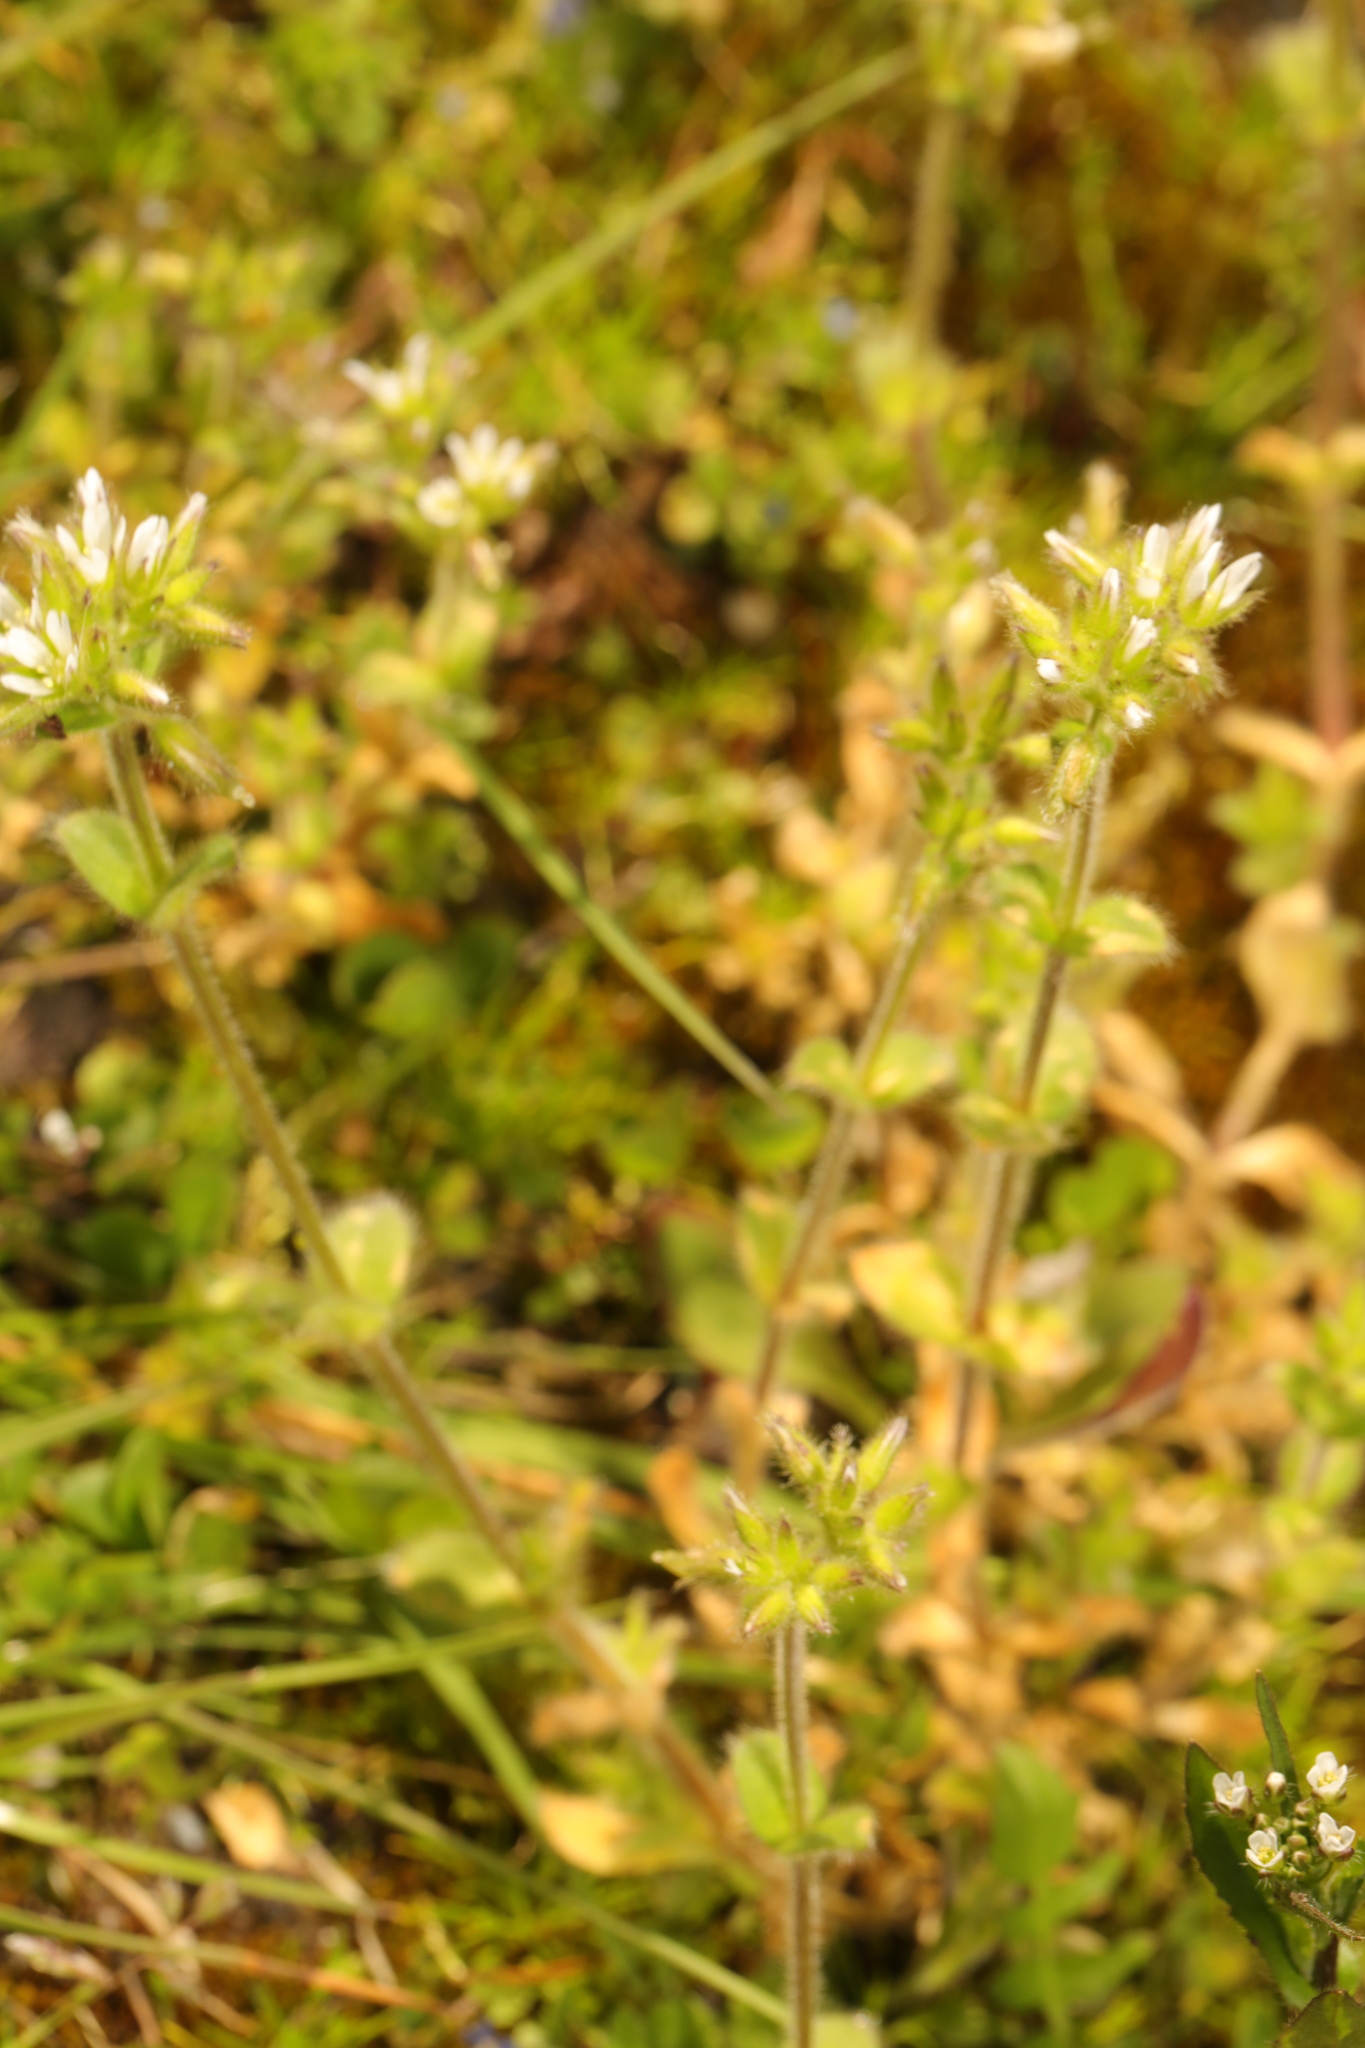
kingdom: Plantae
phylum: Tracheophyta
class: Magnoliopsida
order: Caryophyllales
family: Caryophyllaceae
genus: Cerastium
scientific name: Cerastium glomeratum
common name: Sticky chickweed
